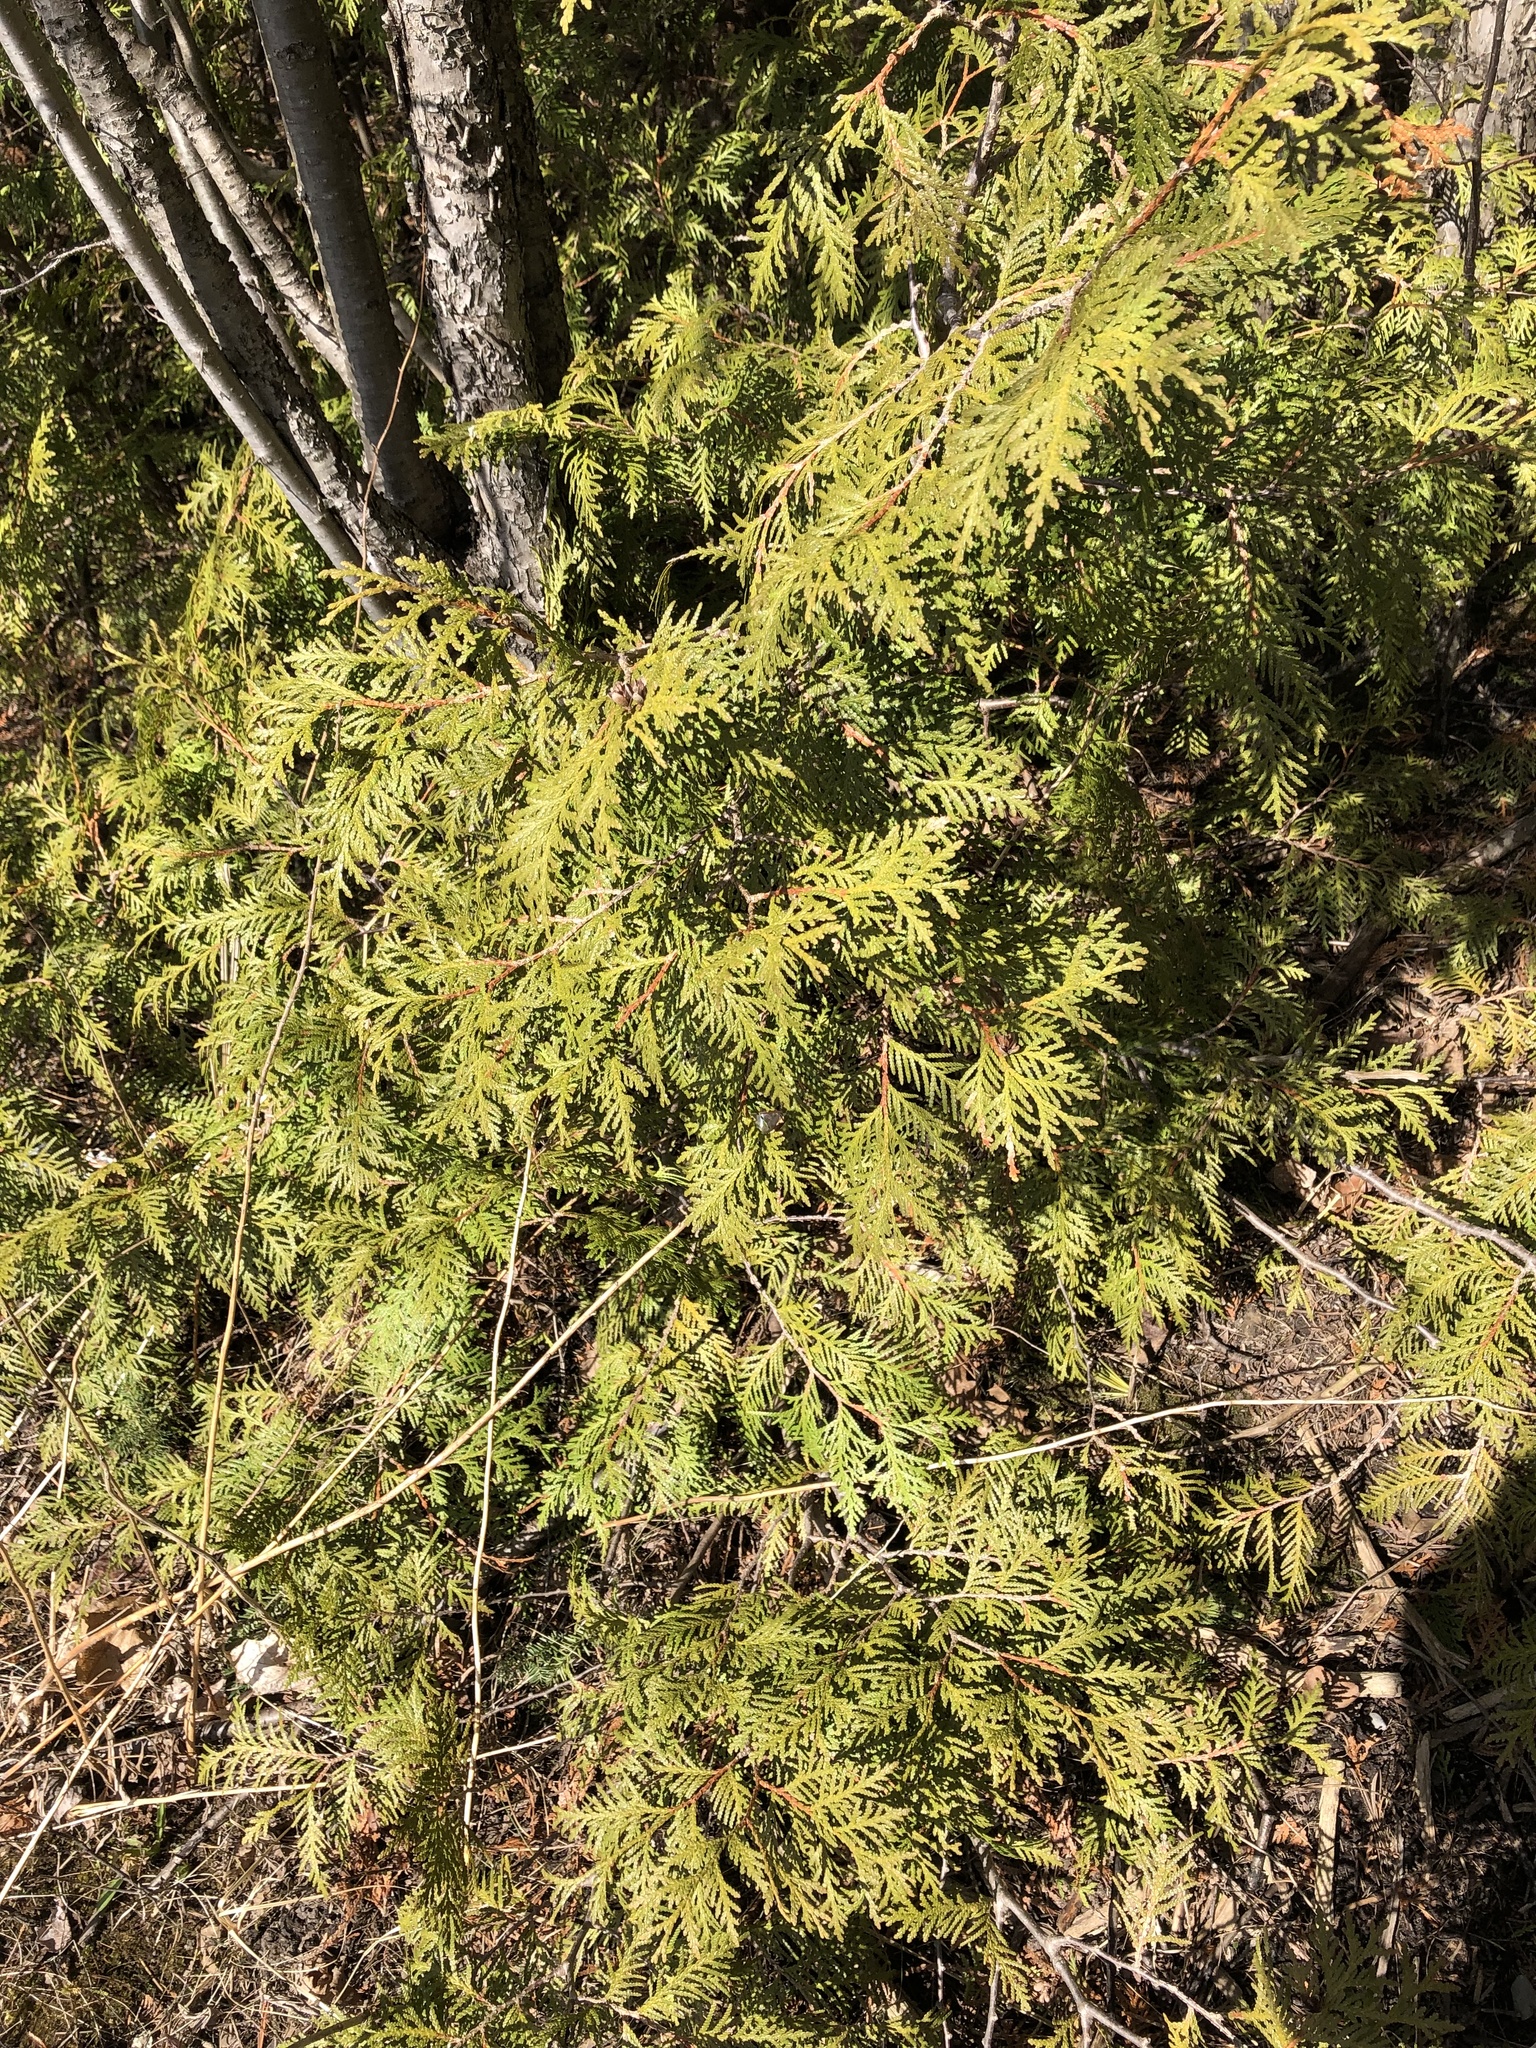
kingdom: Plantae
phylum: Tracheophyta
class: Pinopsida
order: Pinales
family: Cupressaceae
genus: Thuja
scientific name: Thuja occidentalis
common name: Northern white-cedar
